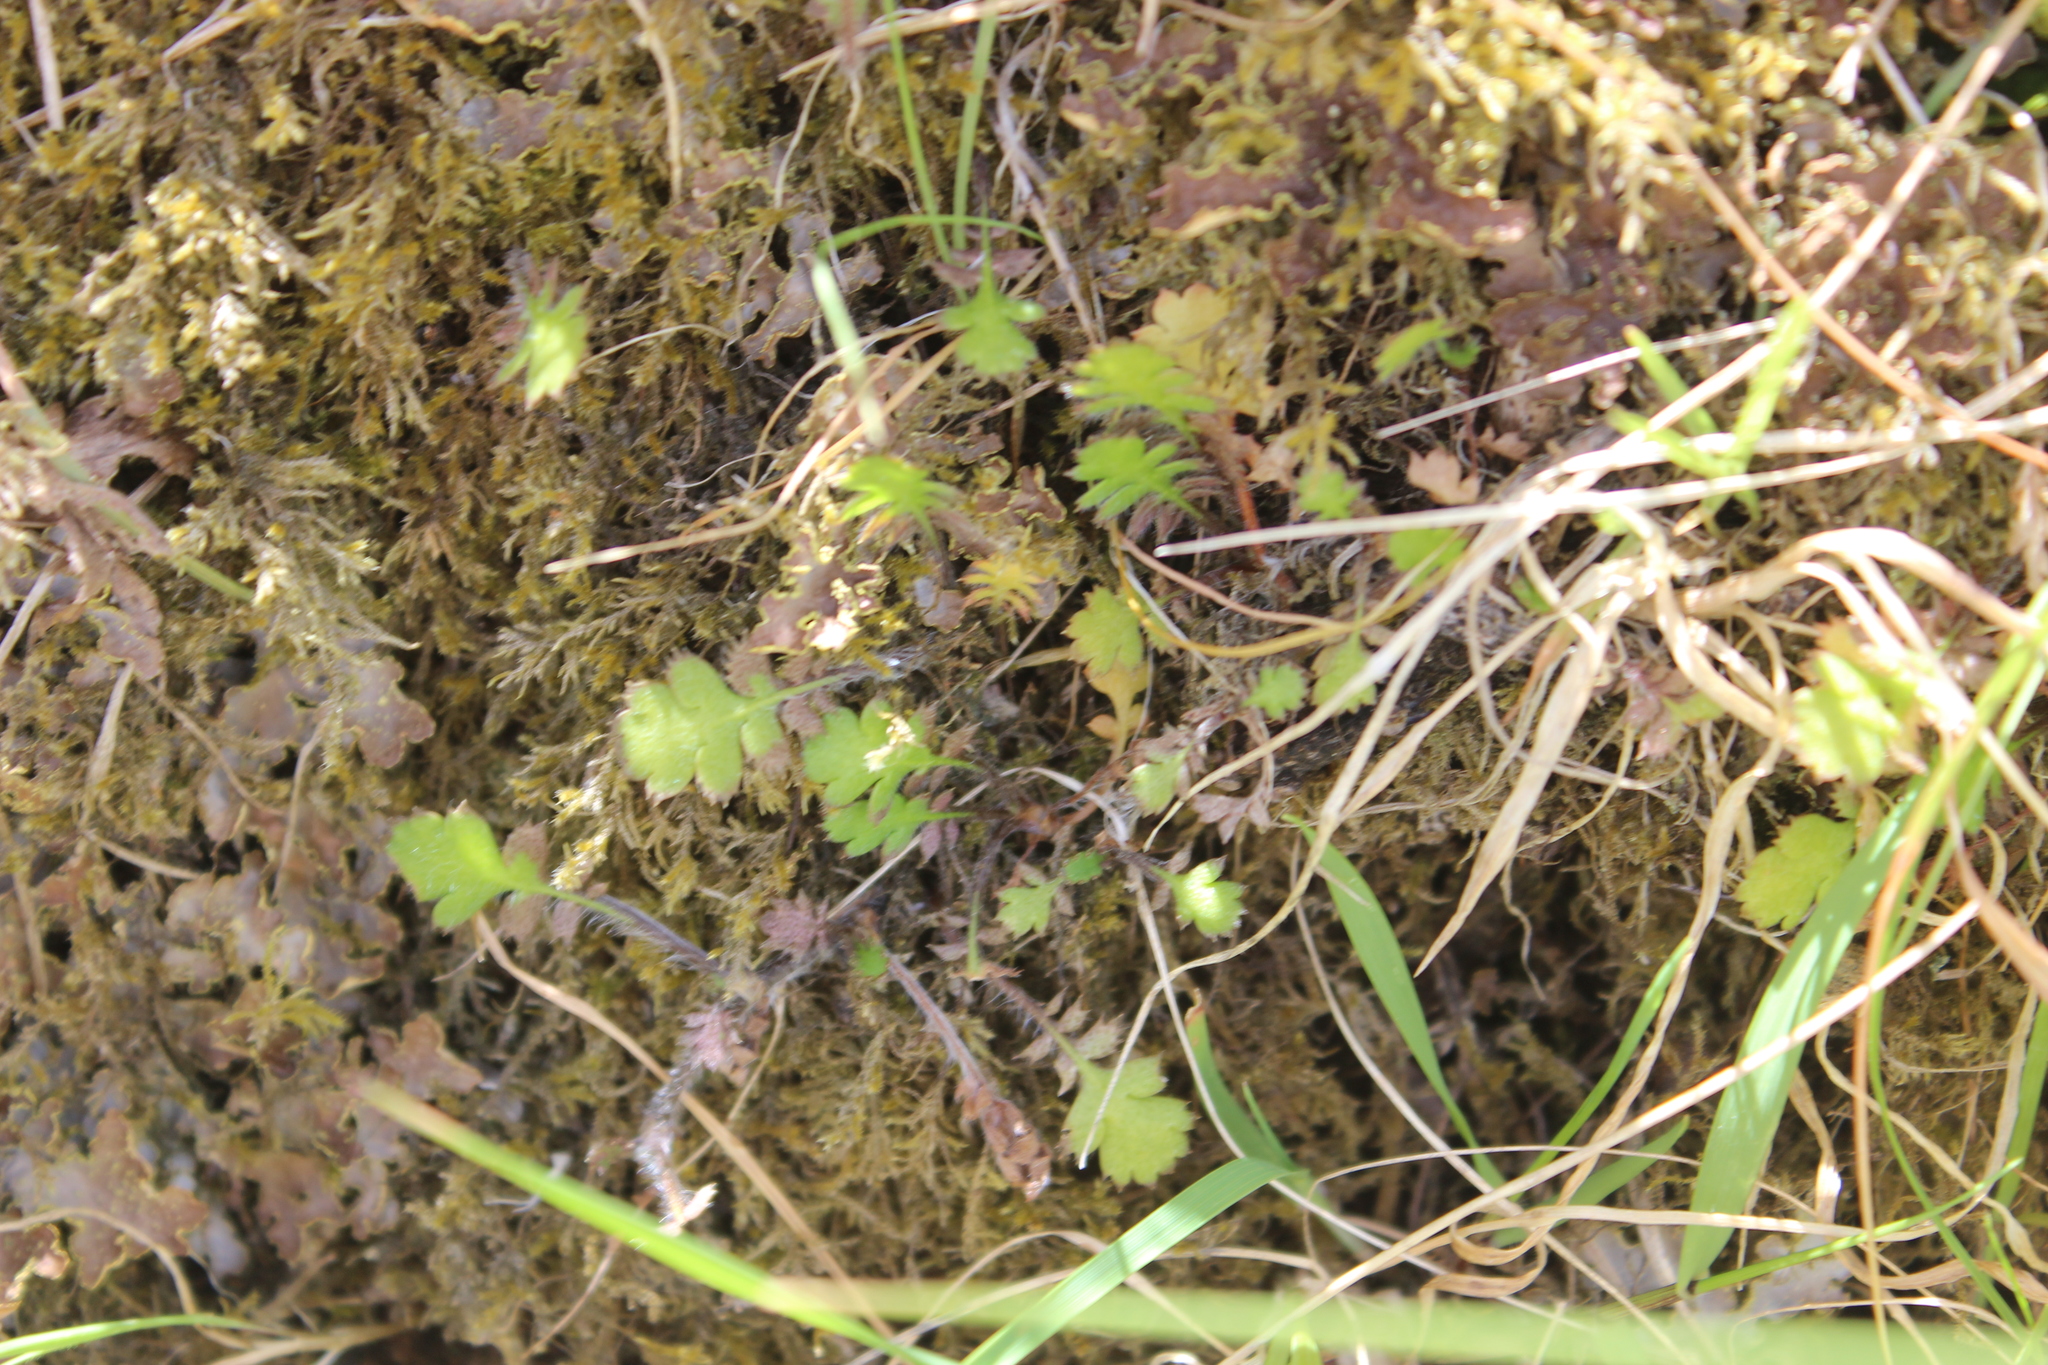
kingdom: Plantae
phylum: Tracheophyta
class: Magnoliopsida
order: Asterales
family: Asteraceae
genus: Leptinella
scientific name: Leptinella squalida
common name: New zealand brass-buttons
